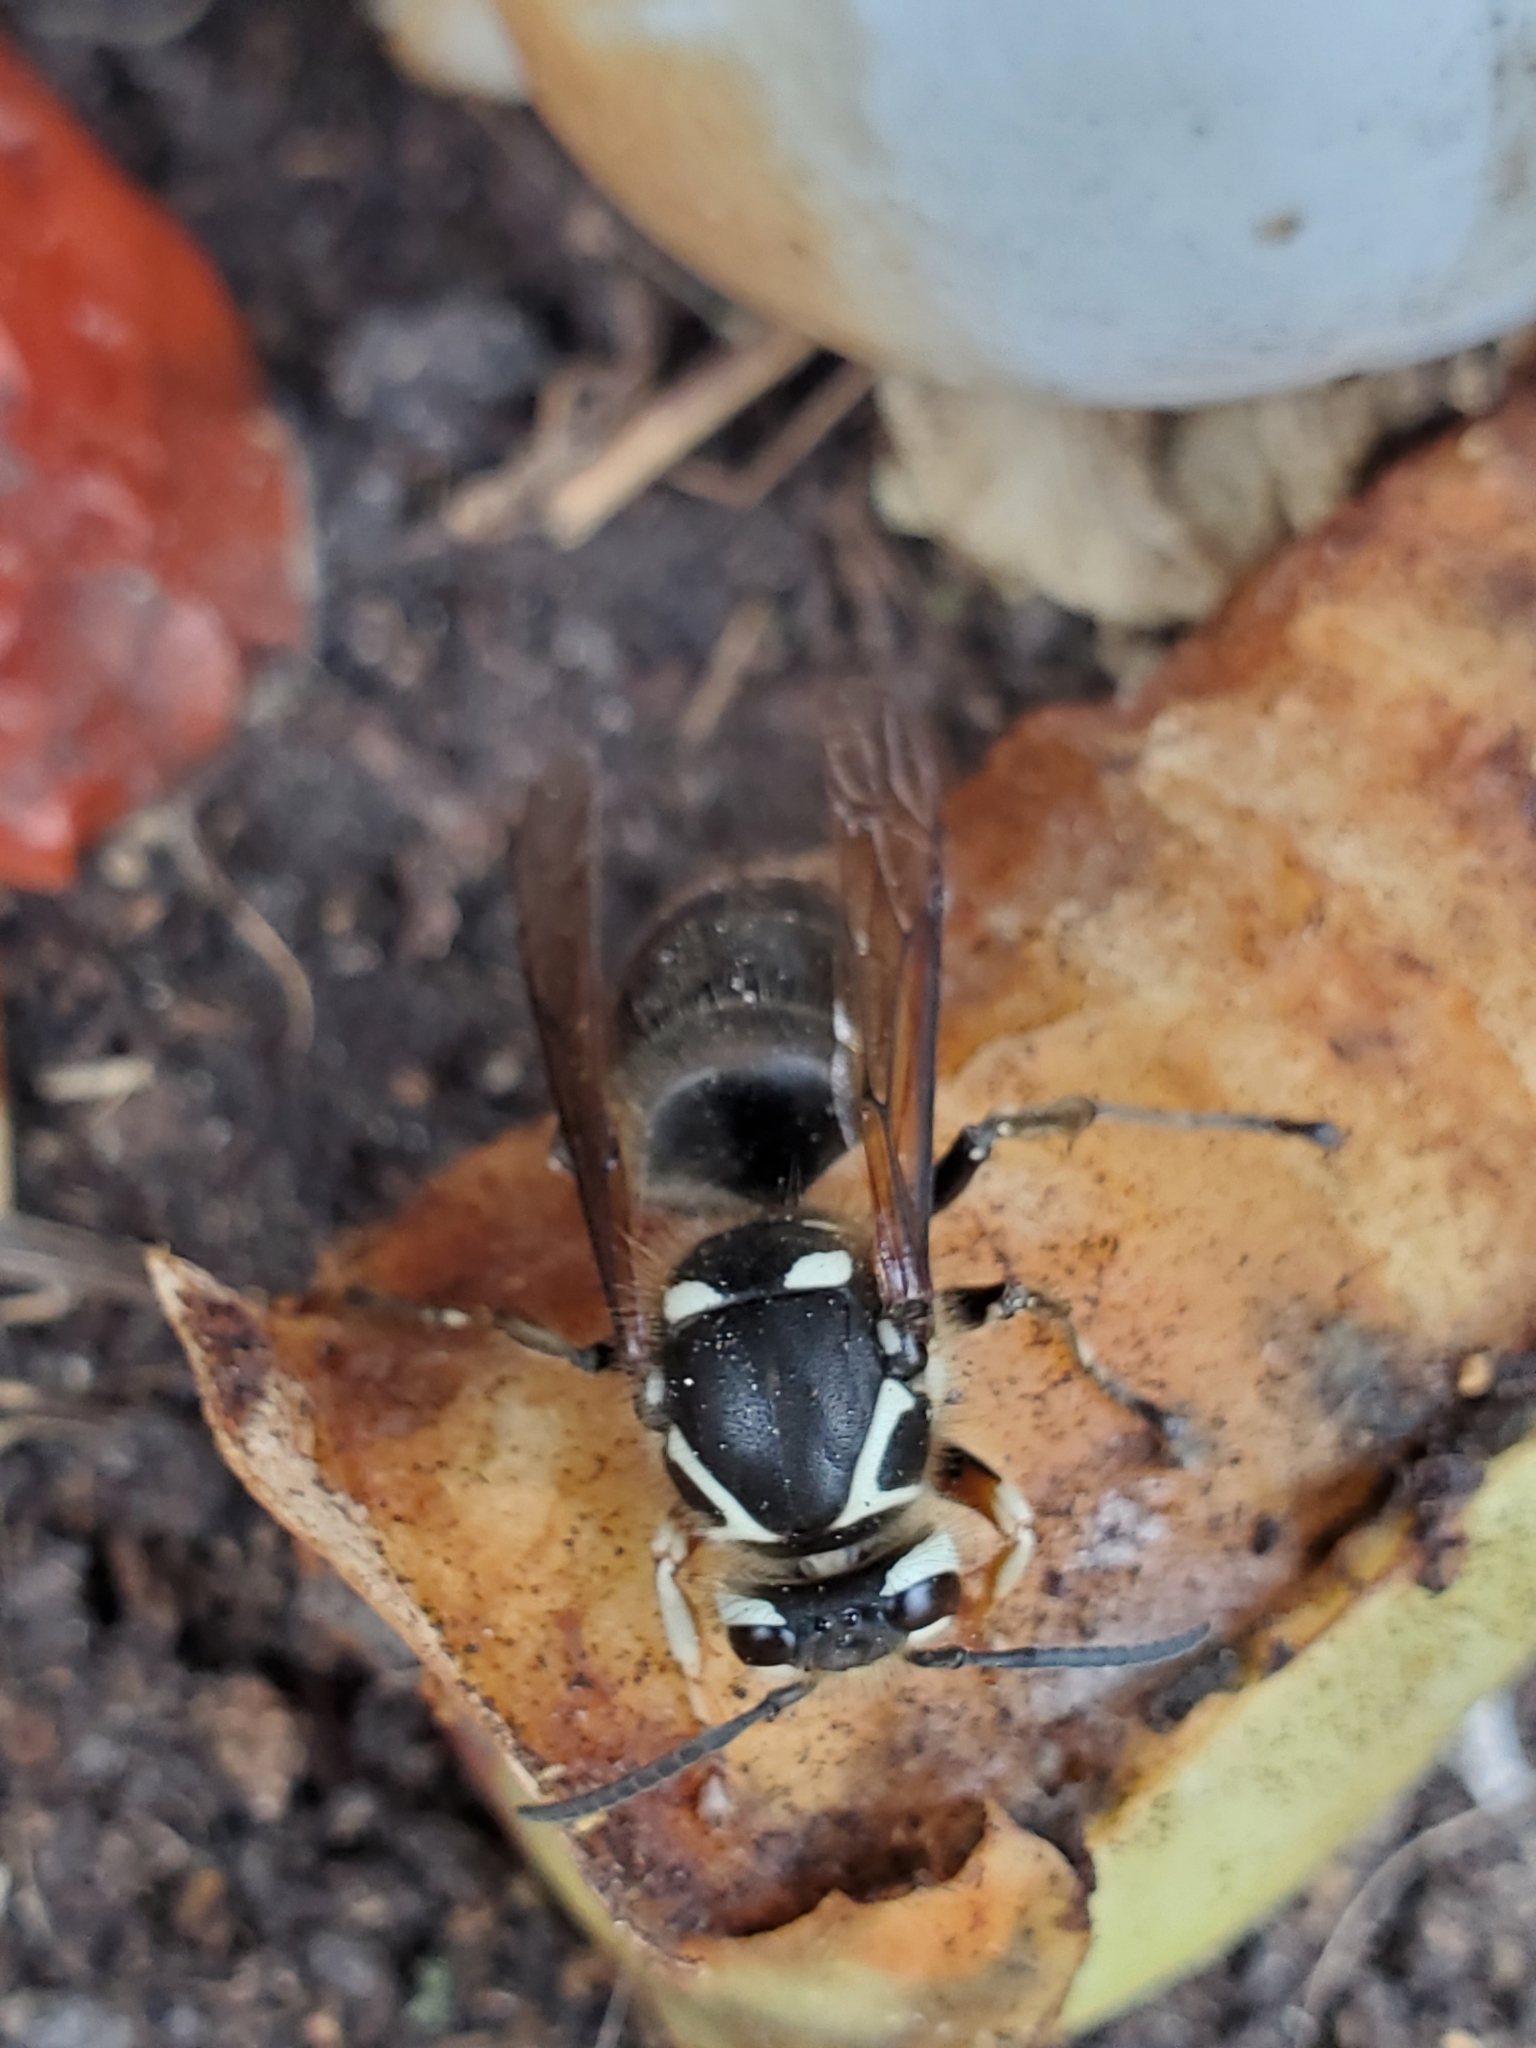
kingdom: Animalia
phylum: Arthropoda
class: Insecta
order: Hymenoptera
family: Vespidae
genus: Dolichovespula
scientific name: Dolichovespula maculata
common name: Bald-faced hornet
